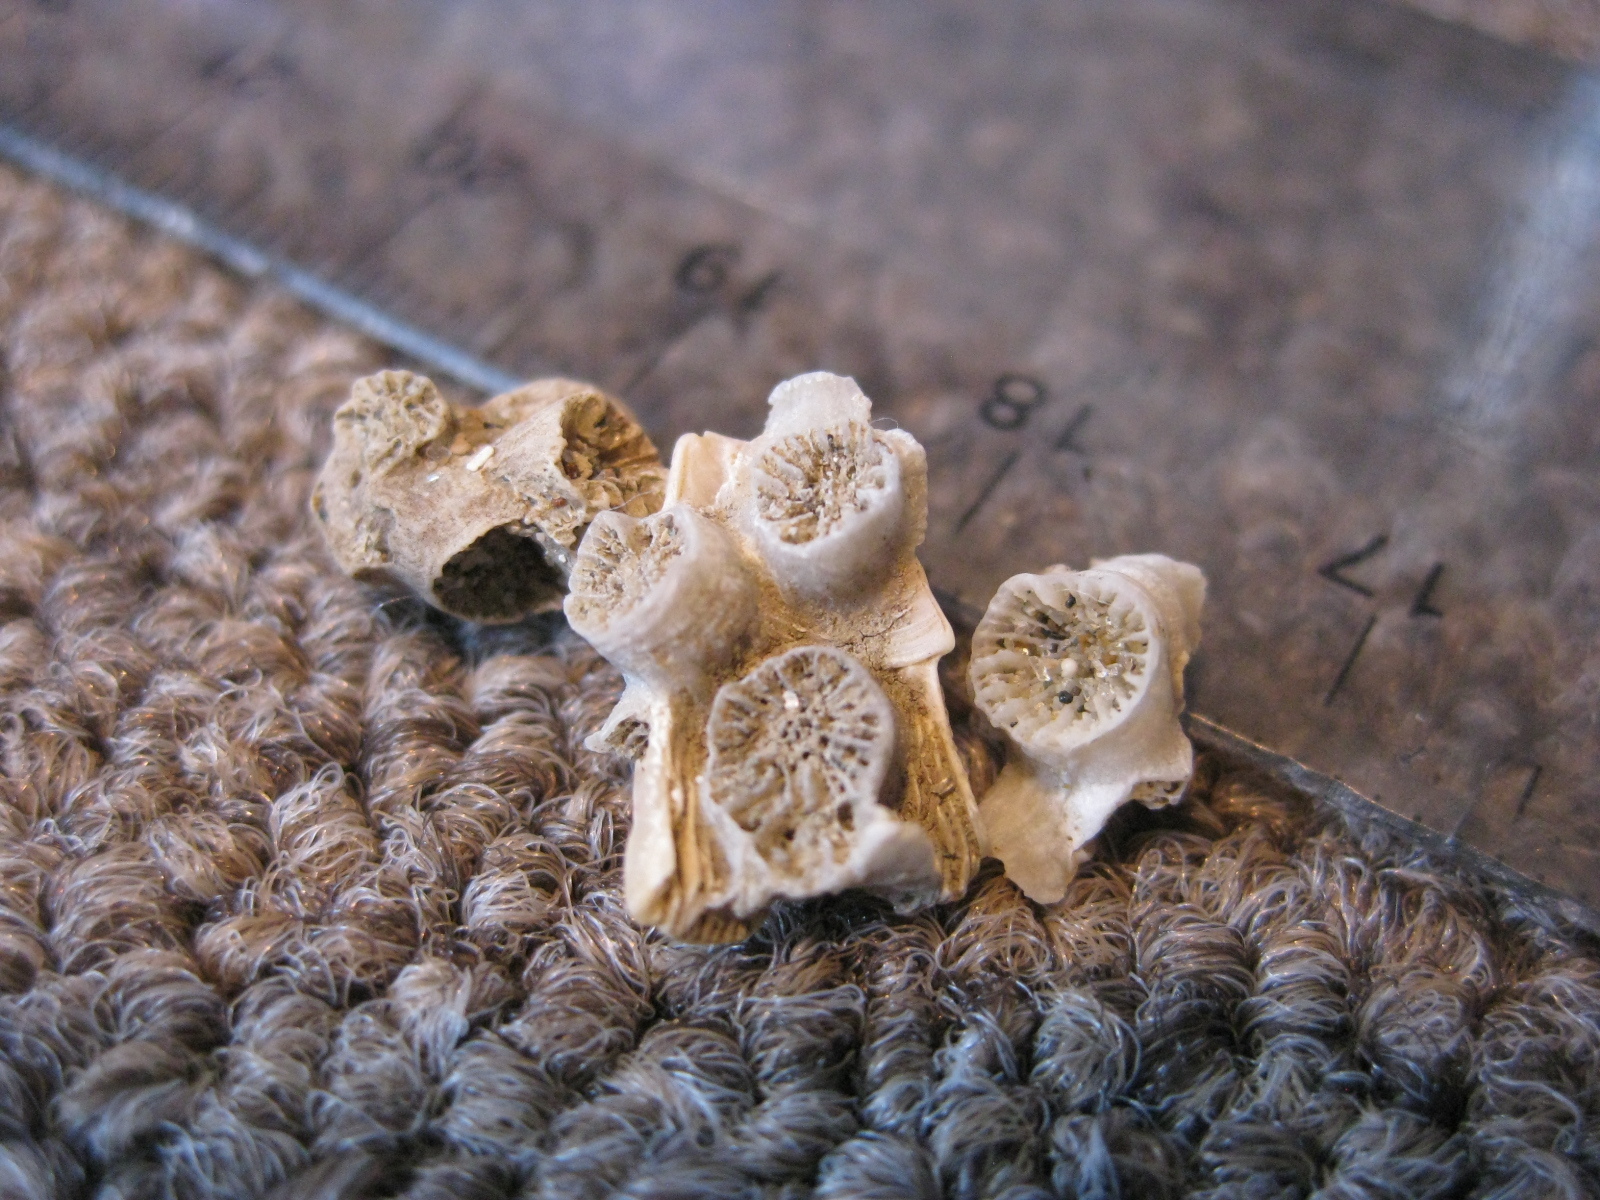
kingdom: Animalia
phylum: Cnidaria
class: Anthozoa
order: Scleractinia
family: Rhizangiidae
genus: Culicia
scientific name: Culicia rubeola
